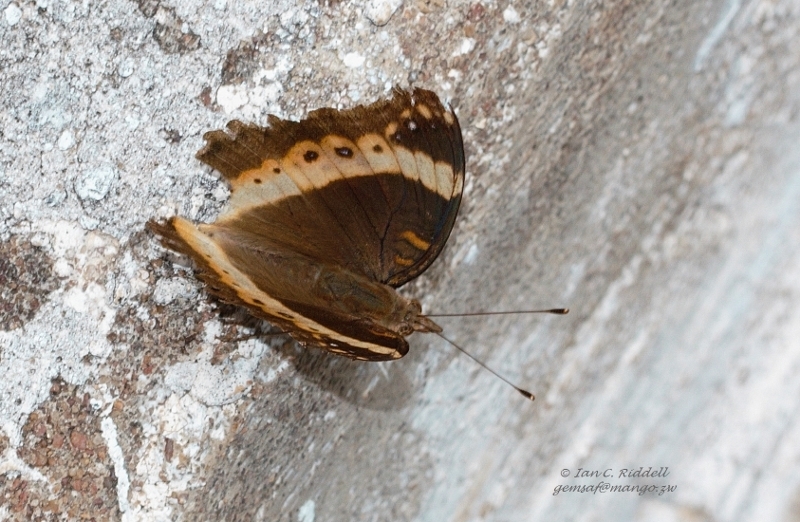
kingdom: Animalia
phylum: Arthropoda
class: Insecta
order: Lepidoptera
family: Nymphalidae
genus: Junonia
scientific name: Junonia archesia
